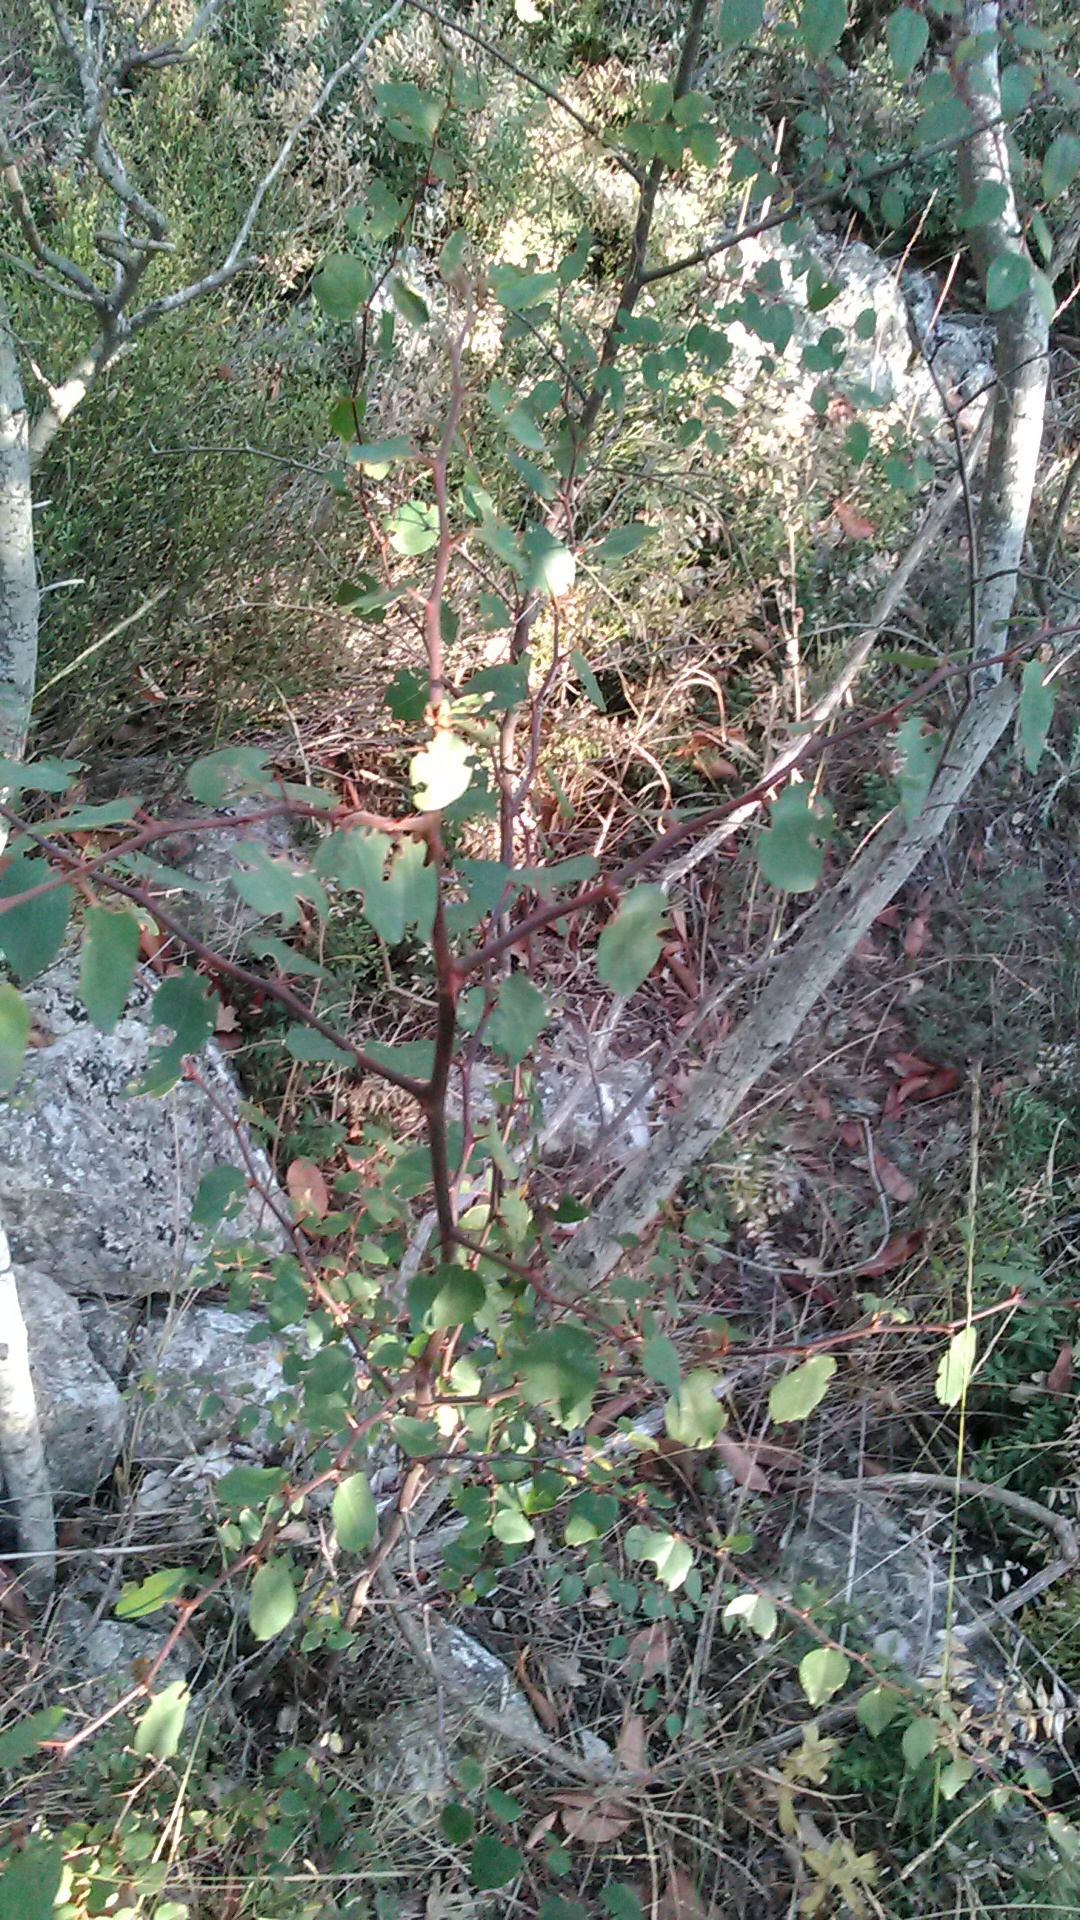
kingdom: Plantae
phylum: Tracheophyta
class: Magnoliopsida
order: Rosales
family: Rhamnaceae
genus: Paliurus
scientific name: Paliurus spina-christi
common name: Jeruselem thorn
